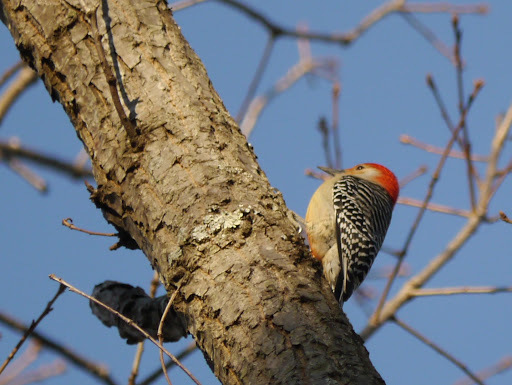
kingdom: Animalia
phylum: Chordata
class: Aves
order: Piciformes
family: Picidae
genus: Melanerpes
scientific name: Melanerpes carolinus
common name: Red-bellied woodpecker
